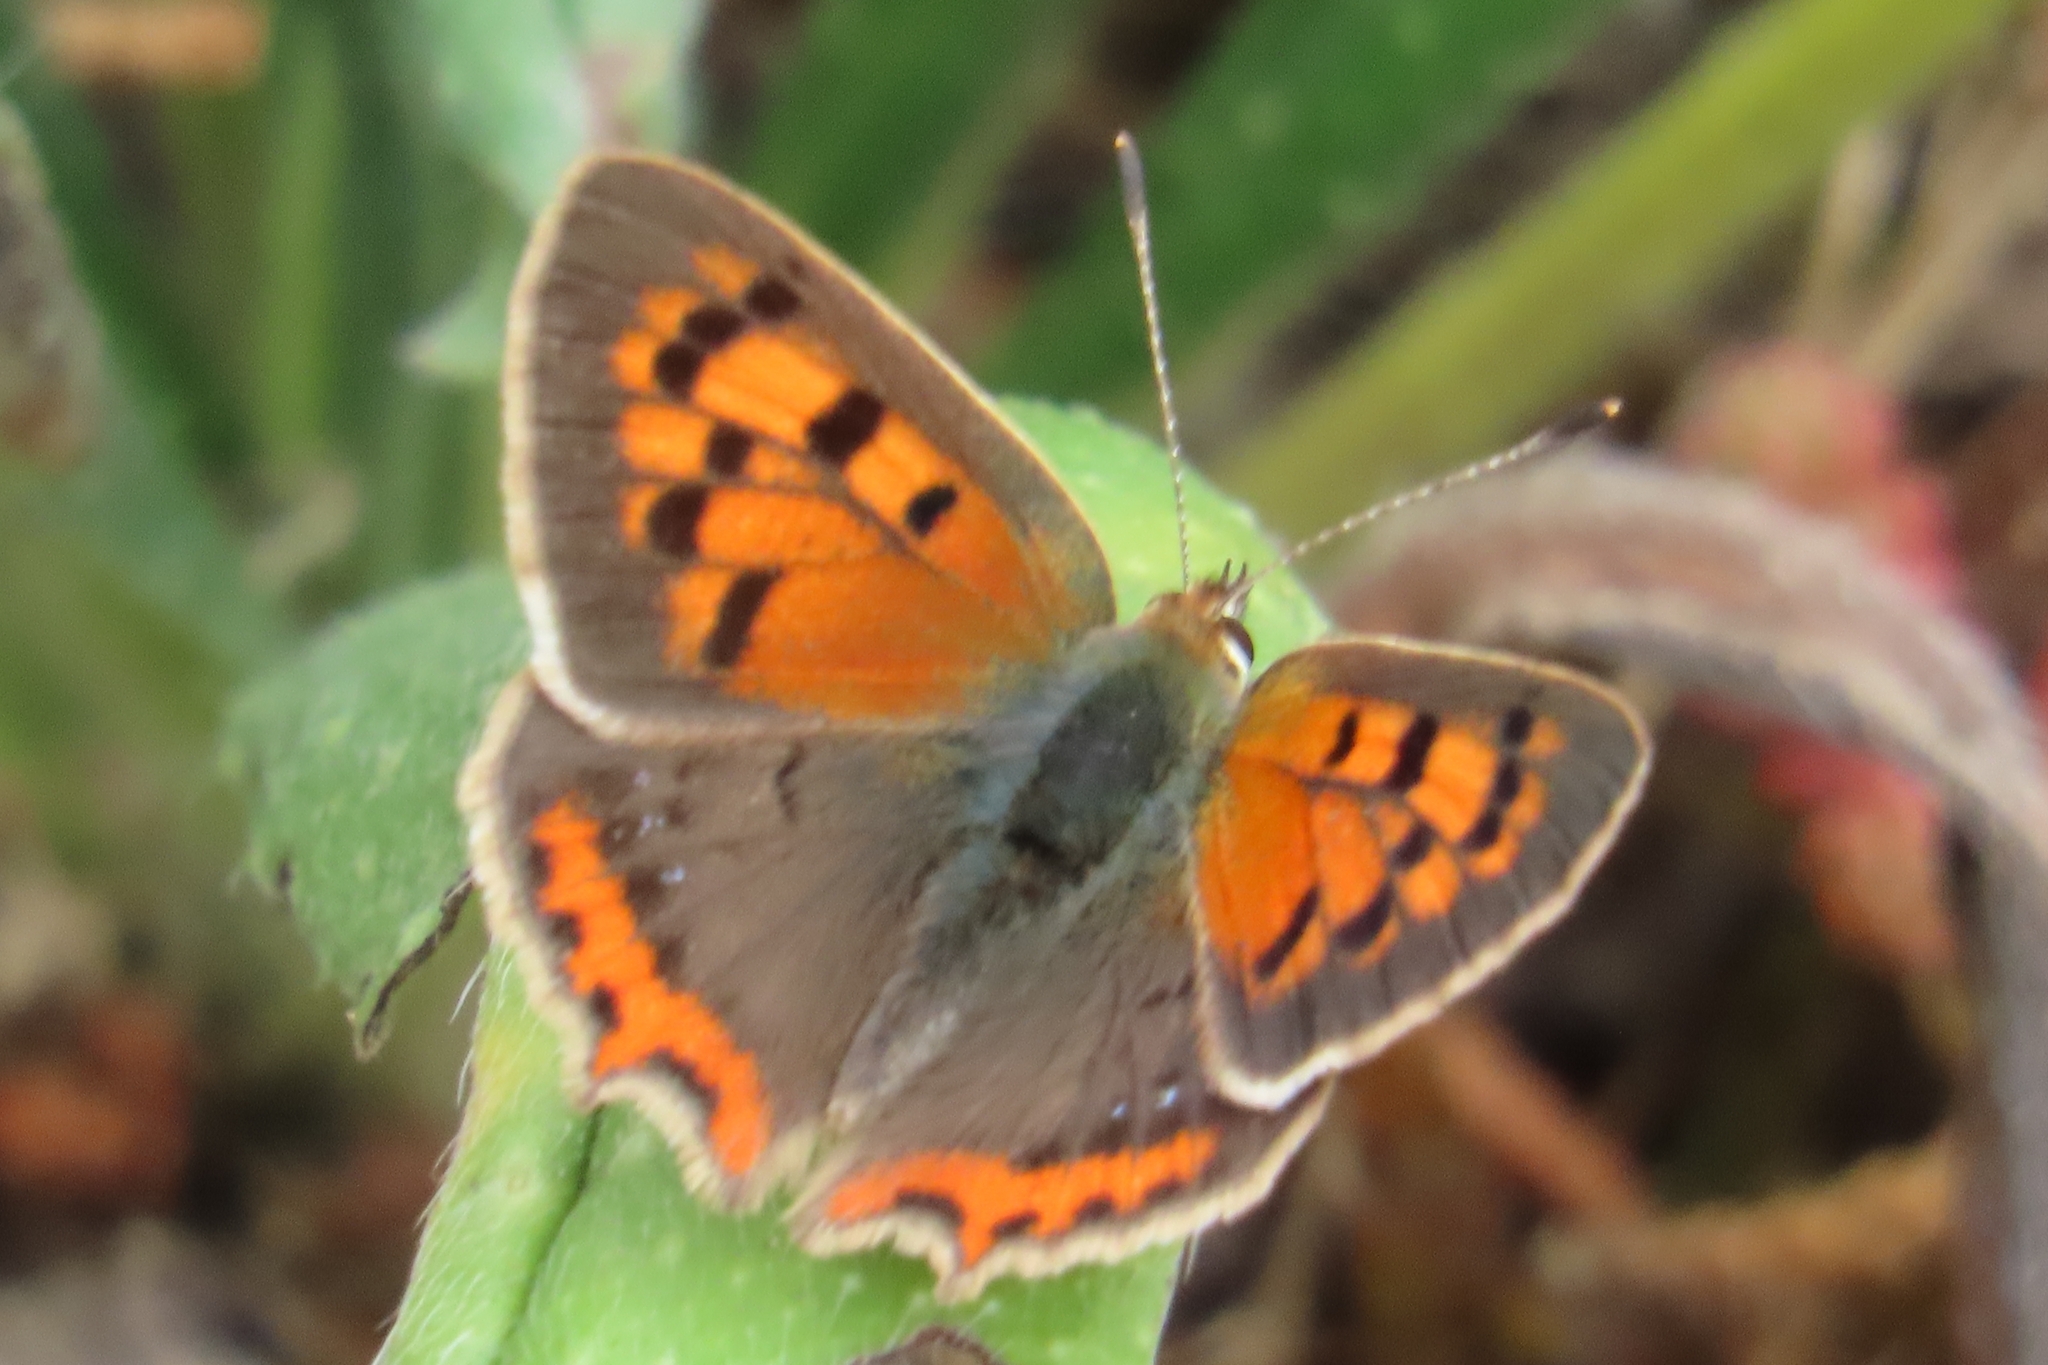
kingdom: Animalia
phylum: Arthropoda
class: Insecta
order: Lepidoptera
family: Lycaenidae
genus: Lycaena
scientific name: Lycaena phlaeas
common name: Small copper
